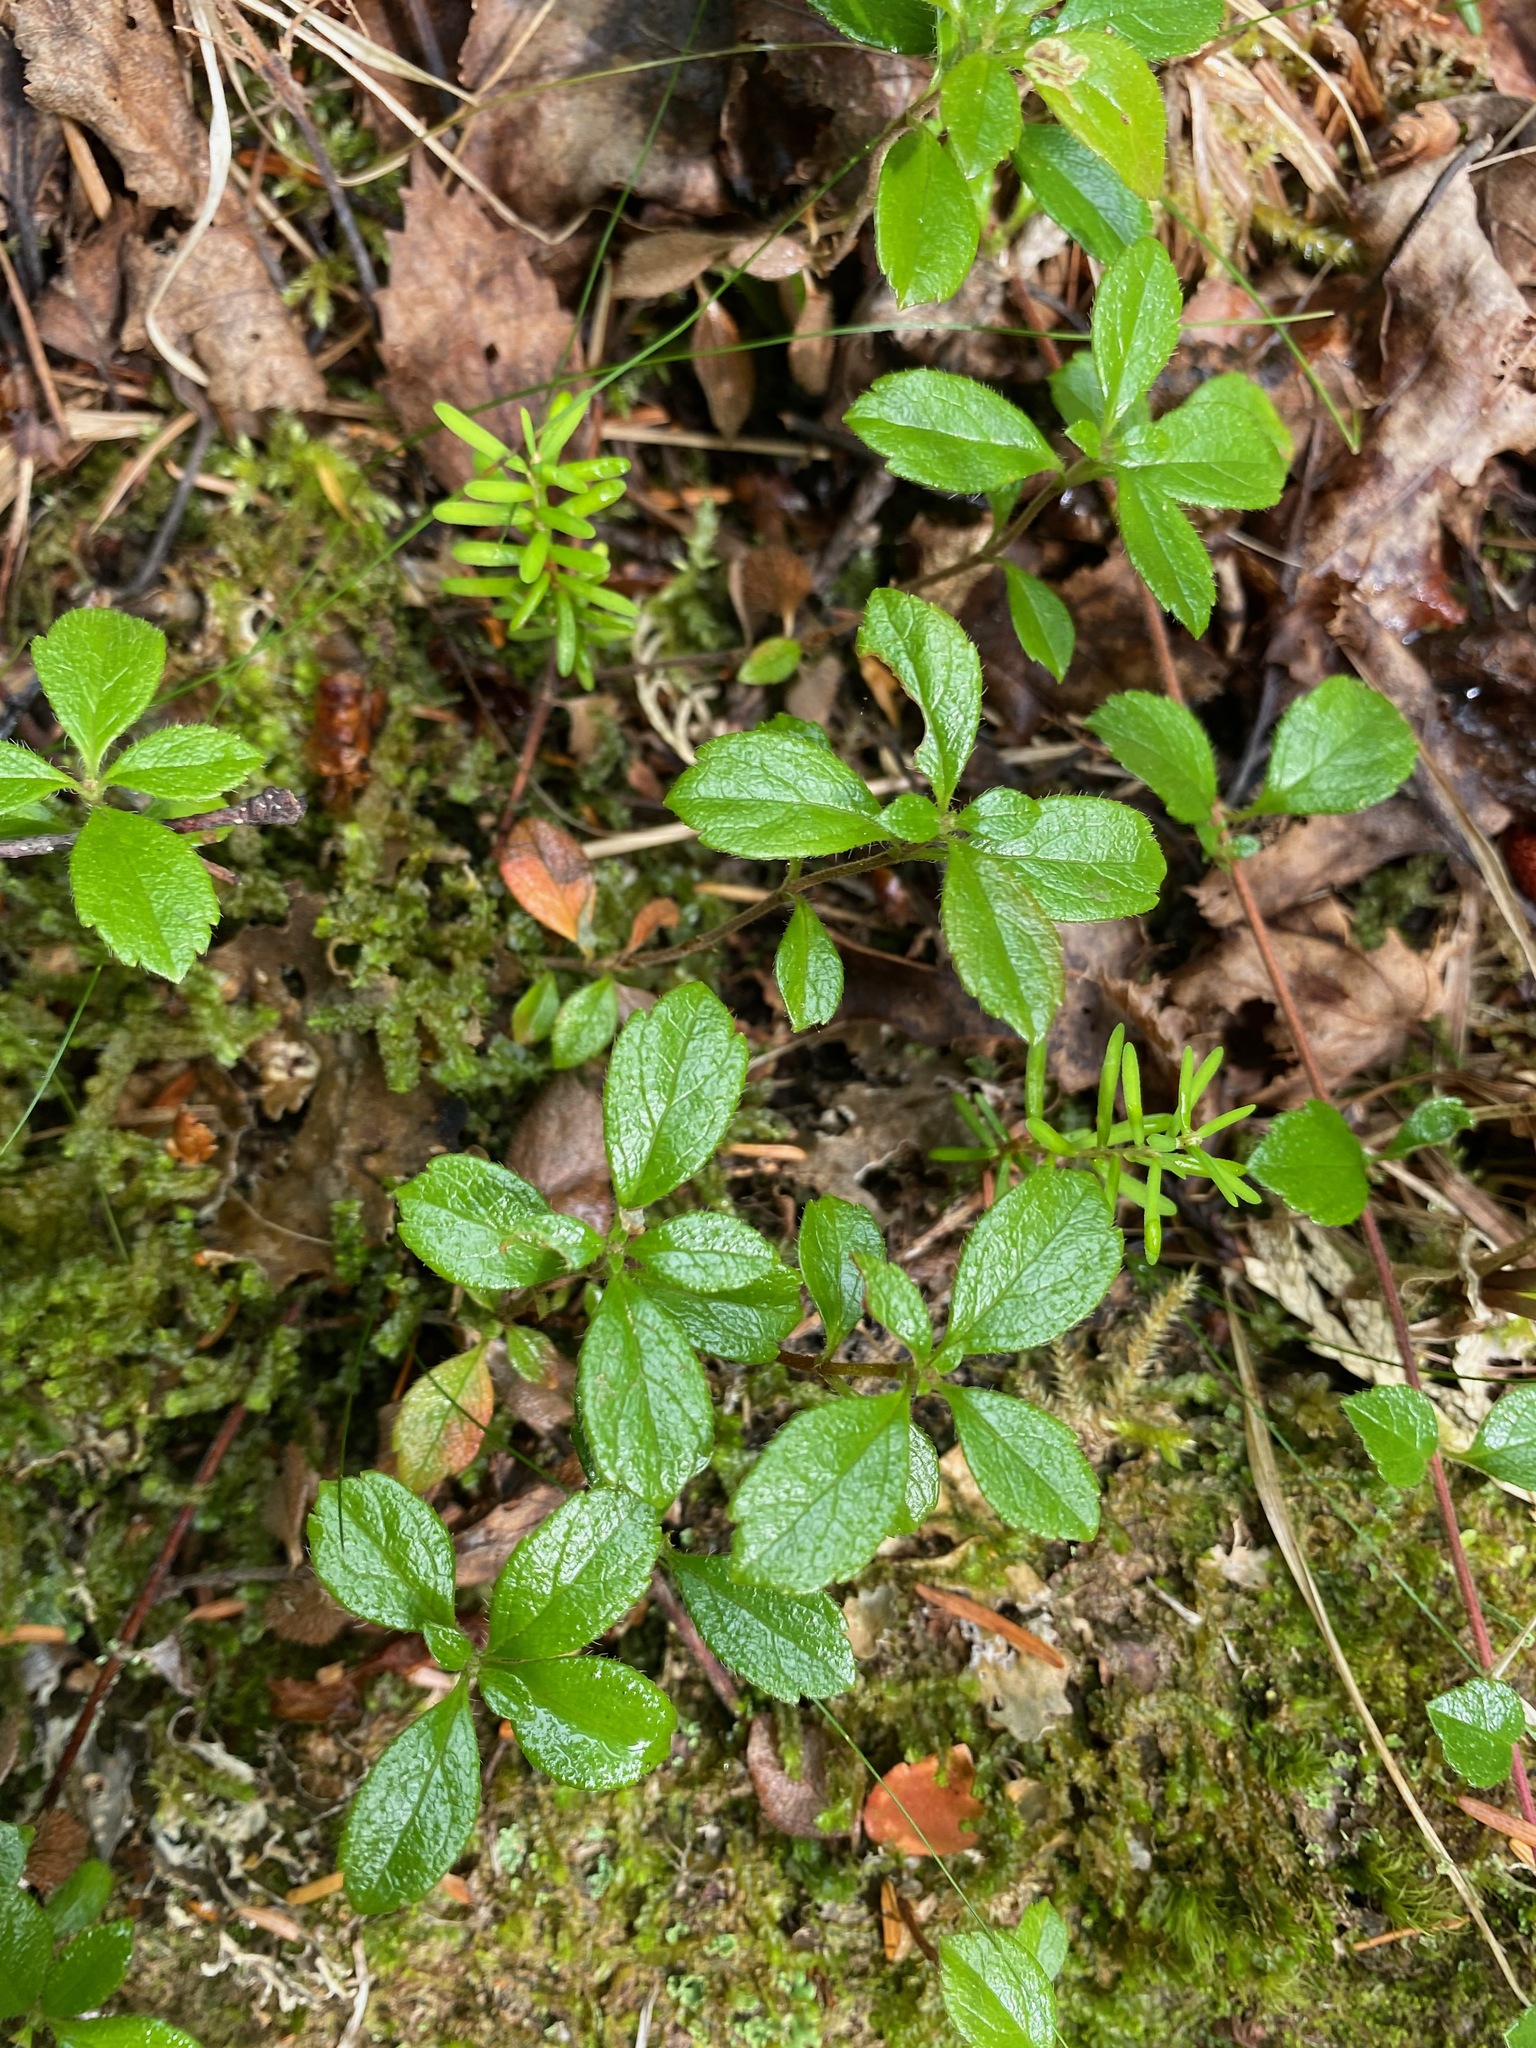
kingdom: Plantae
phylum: Tracheophyta
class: Magnoliopsida
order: Dipsacales
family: Caprifoliaceae
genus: Linnaea
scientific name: Linnaea borealis
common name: Twinflower
